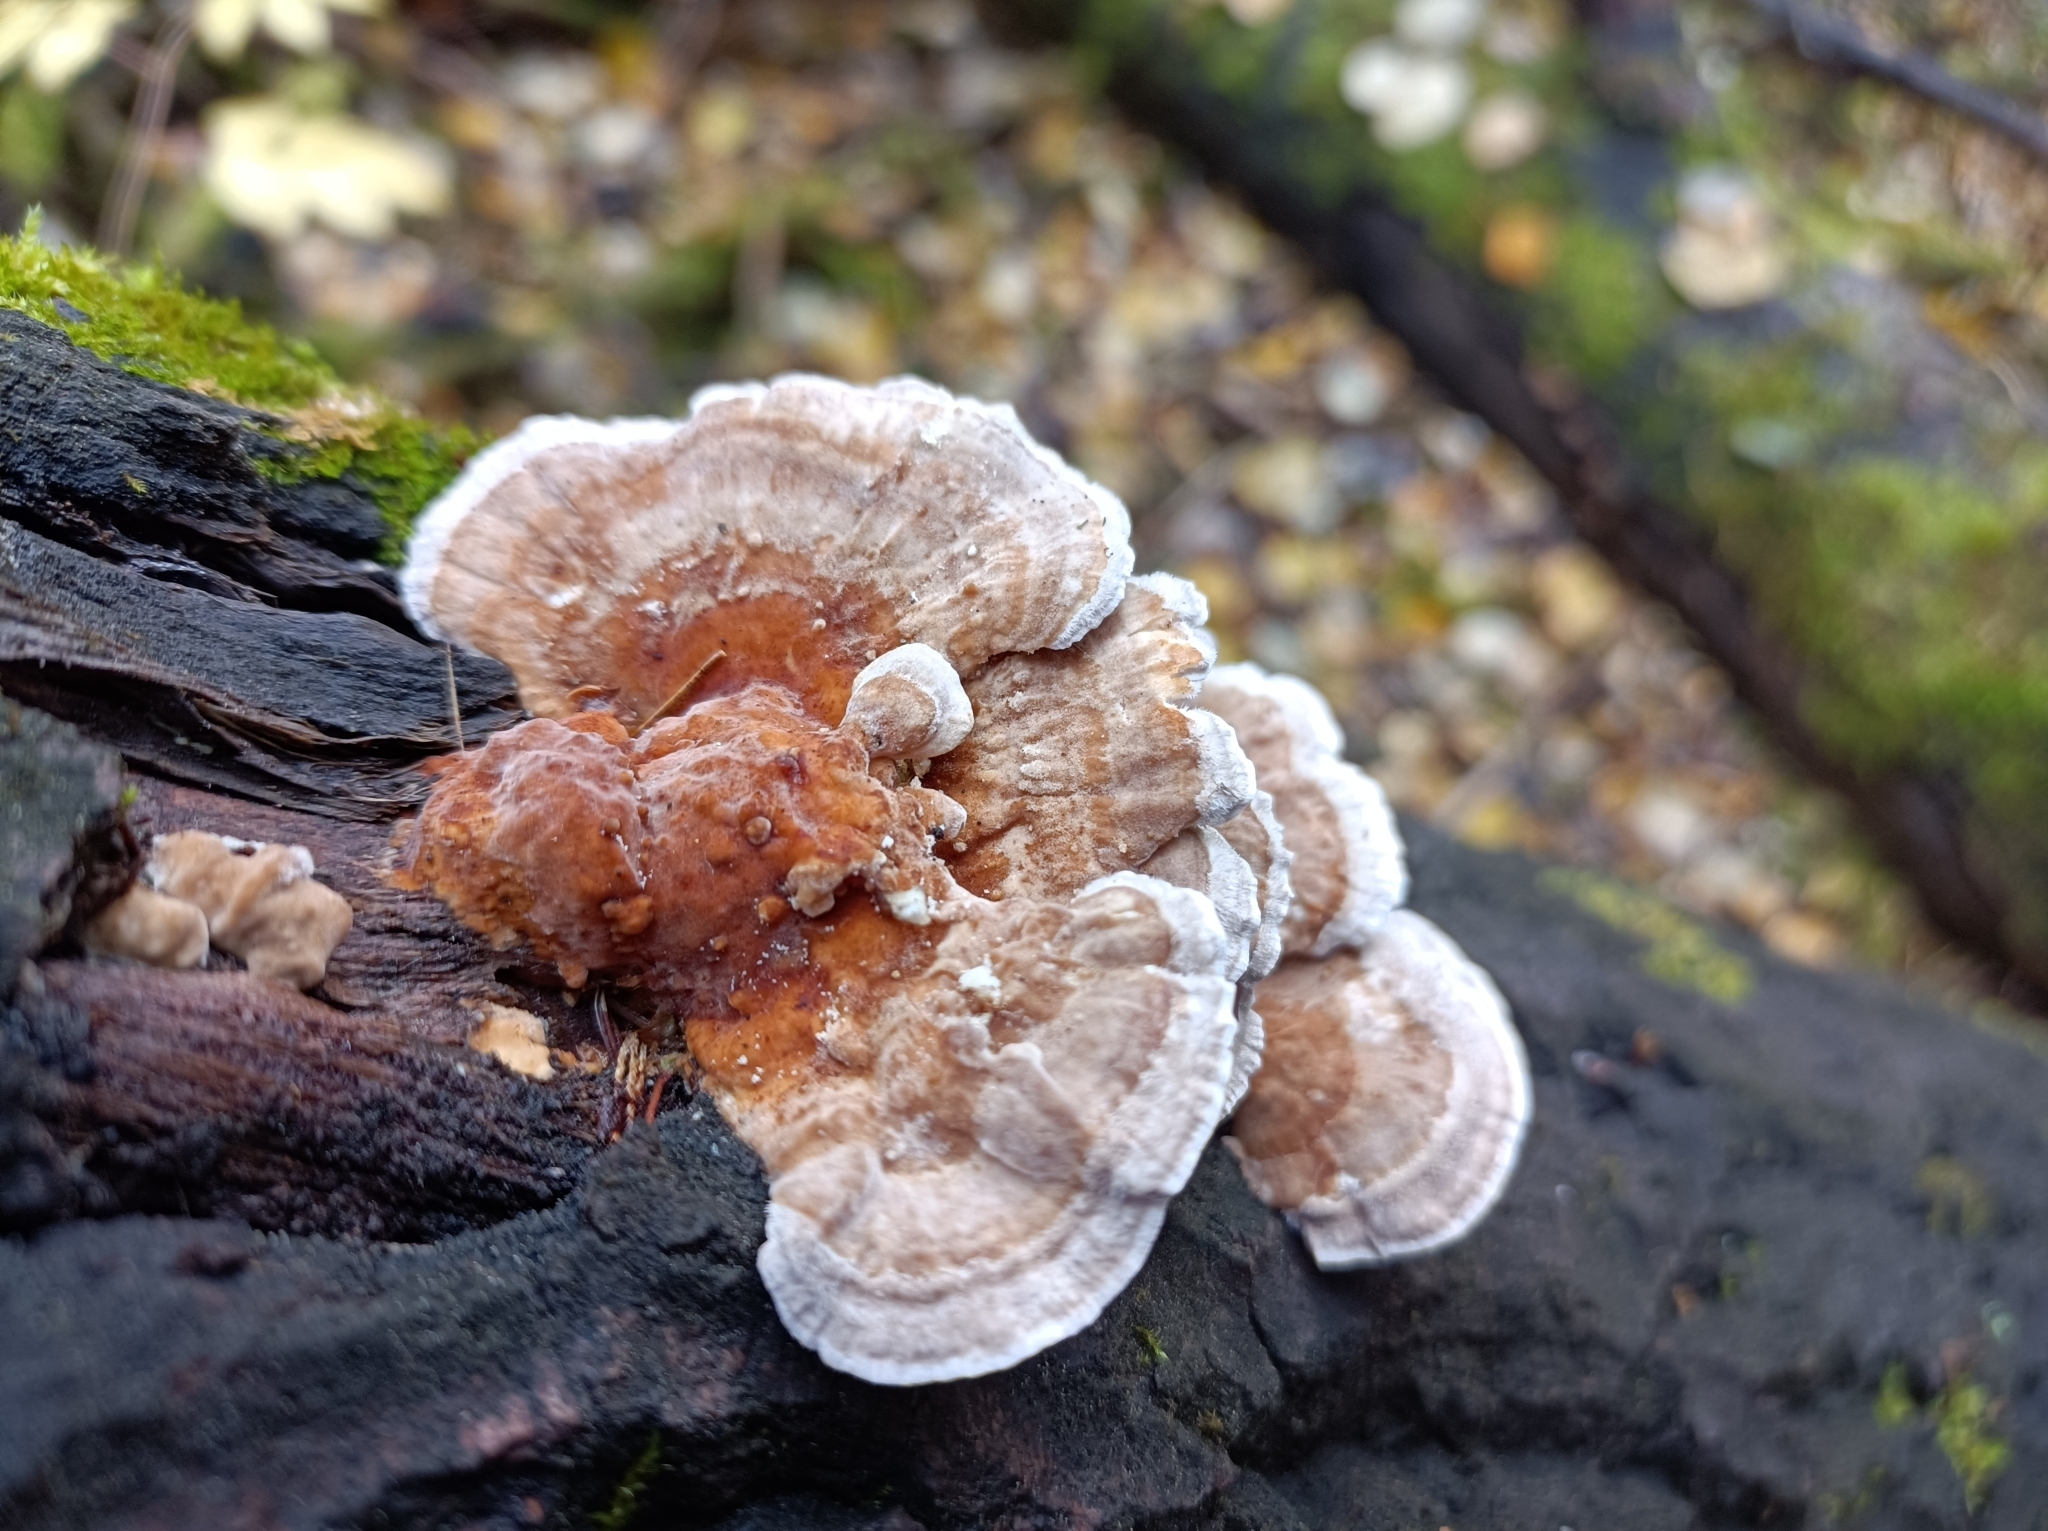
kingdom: Fungi
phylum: Basidiomycota
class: Agaricomycetes
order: Polyporales
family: Polyporaceae
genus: Trametes
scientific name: Trametes ochracea
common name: Ochre bracket
